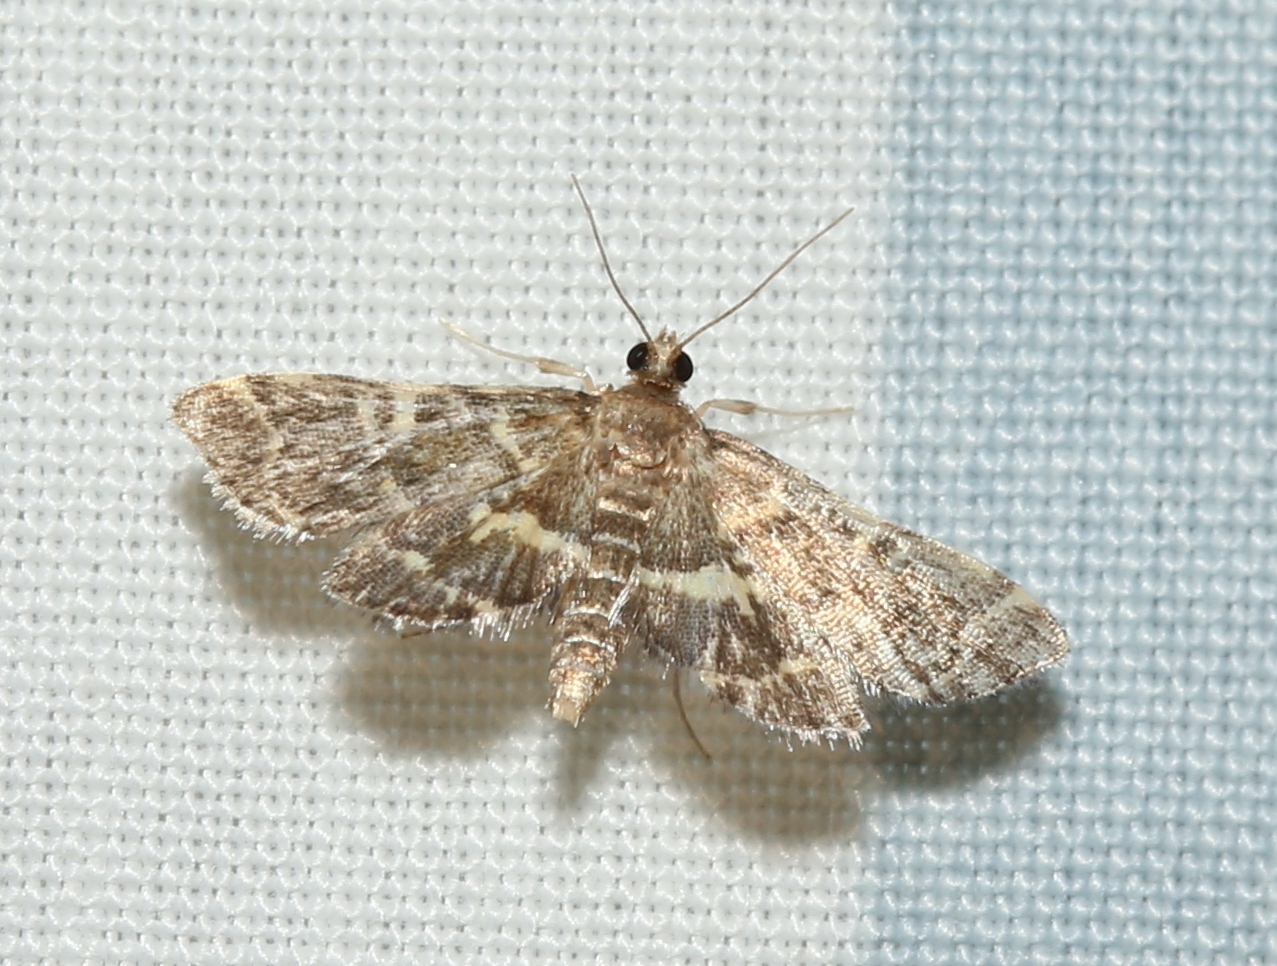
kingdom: Animalia
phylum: Arthropoda
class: Insecta
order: Lepidoptera
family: Crambidae
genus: Anageshna
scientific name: Anageshna primordialis
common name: Yellow-spotted webworm moth
